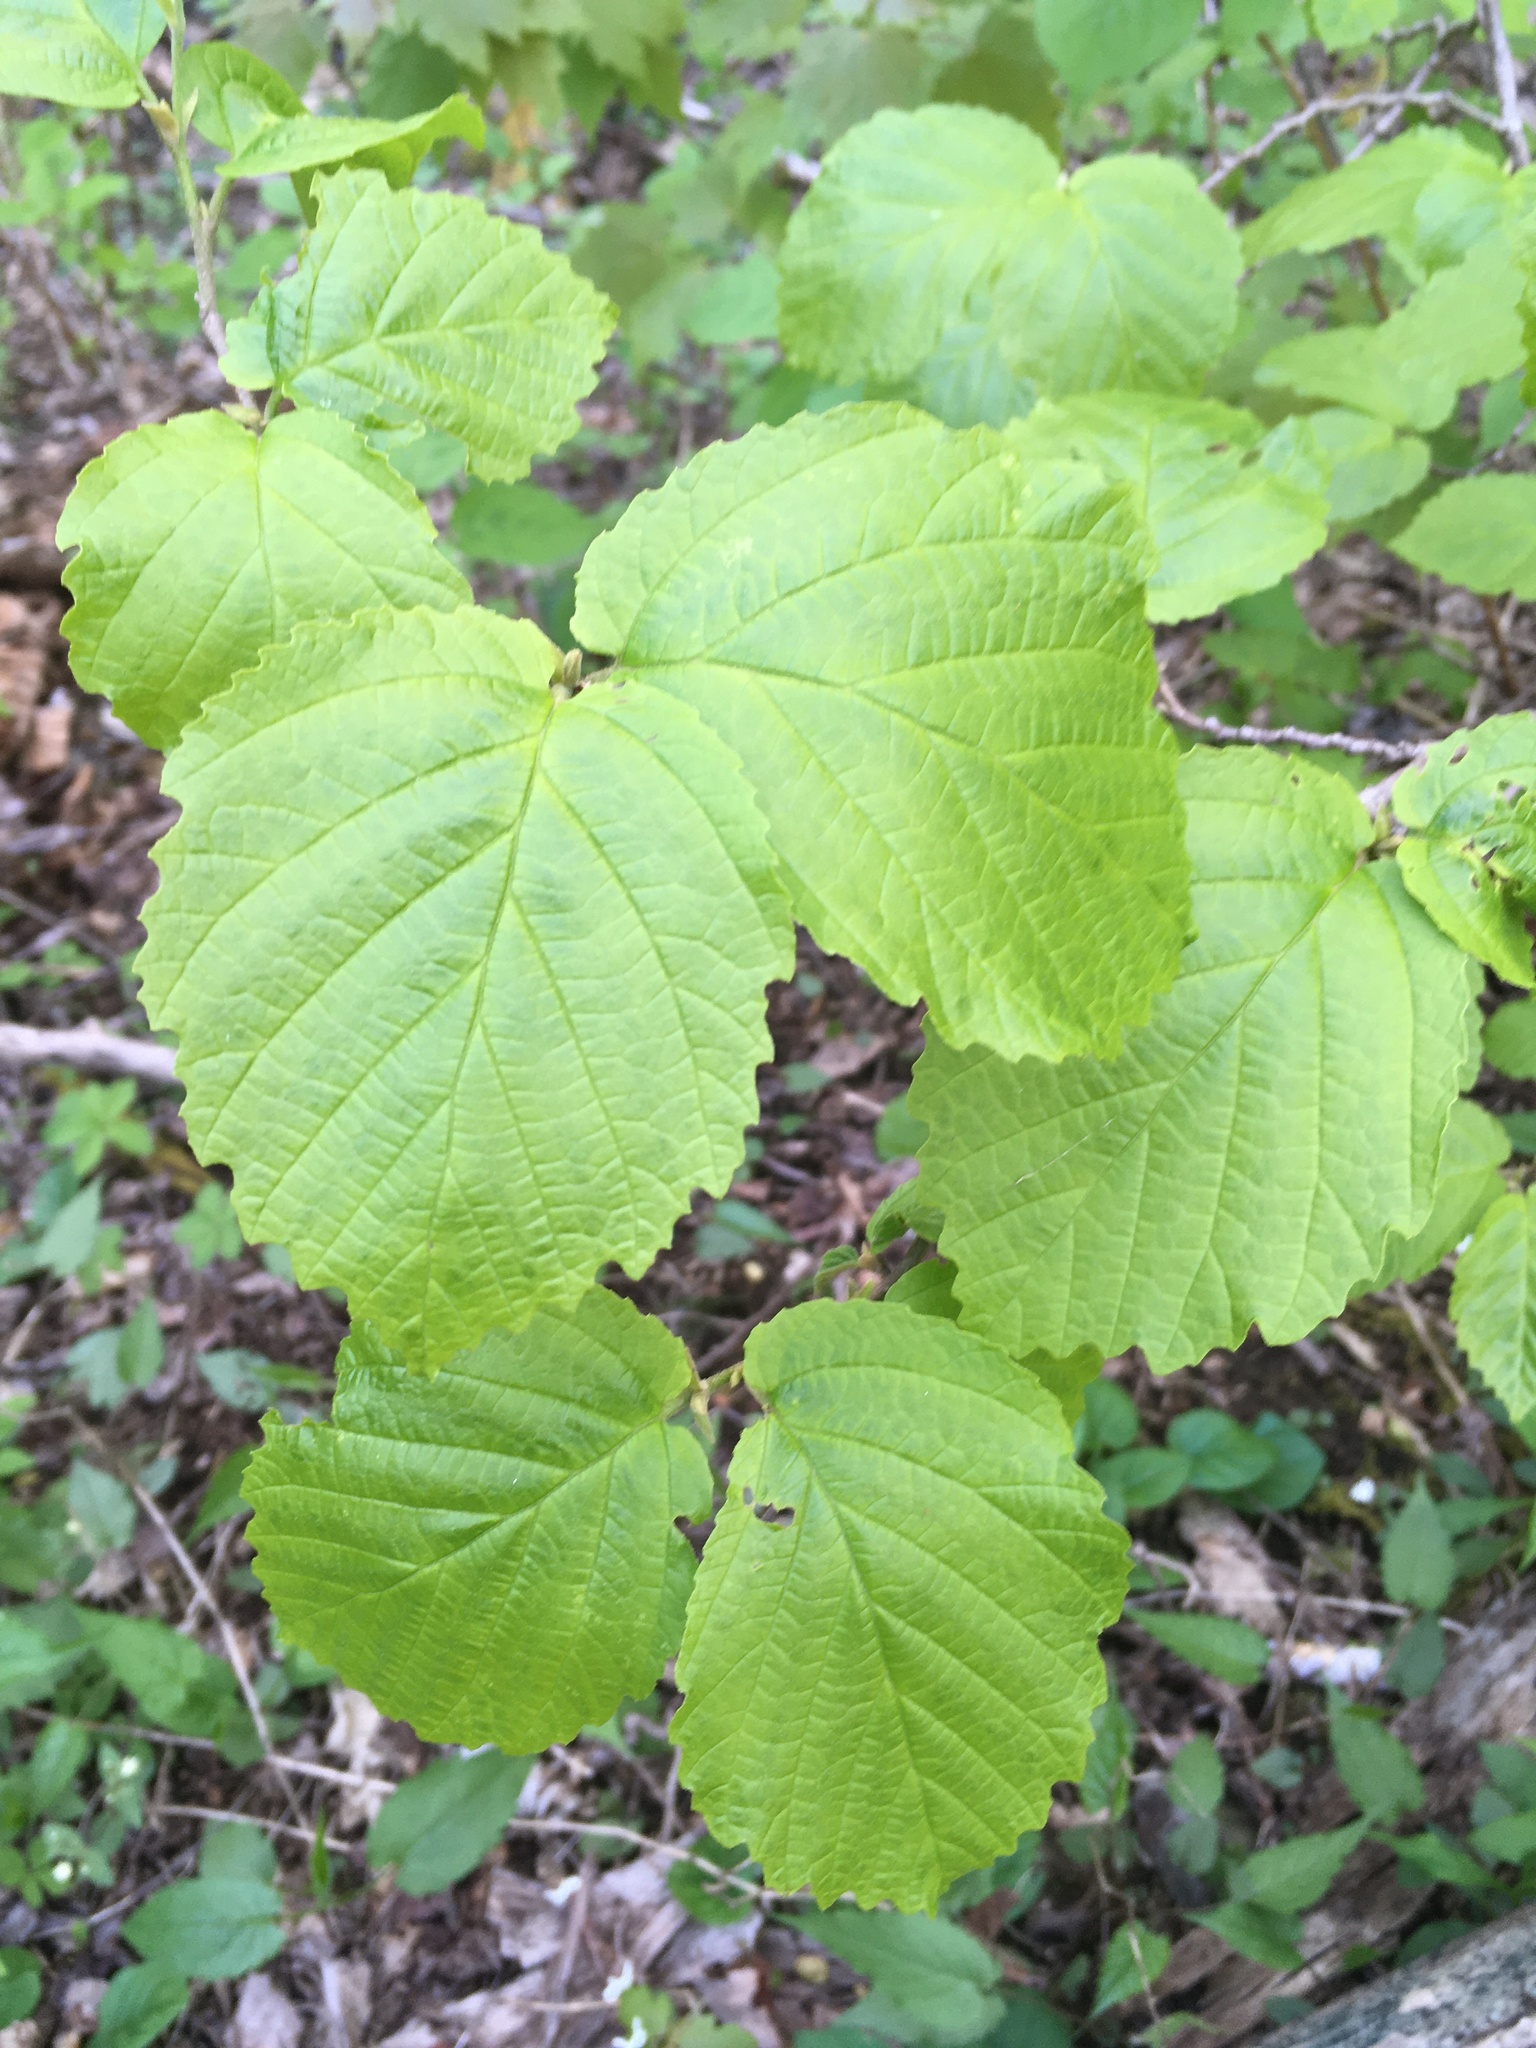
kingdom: Plantae
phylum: Tracheophyta
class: Magnoliopsida
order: Saxifragales
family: Hamamelidaceae
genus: Hamamelis
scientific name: Hamamelis virginiana
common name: Witch-hazel
